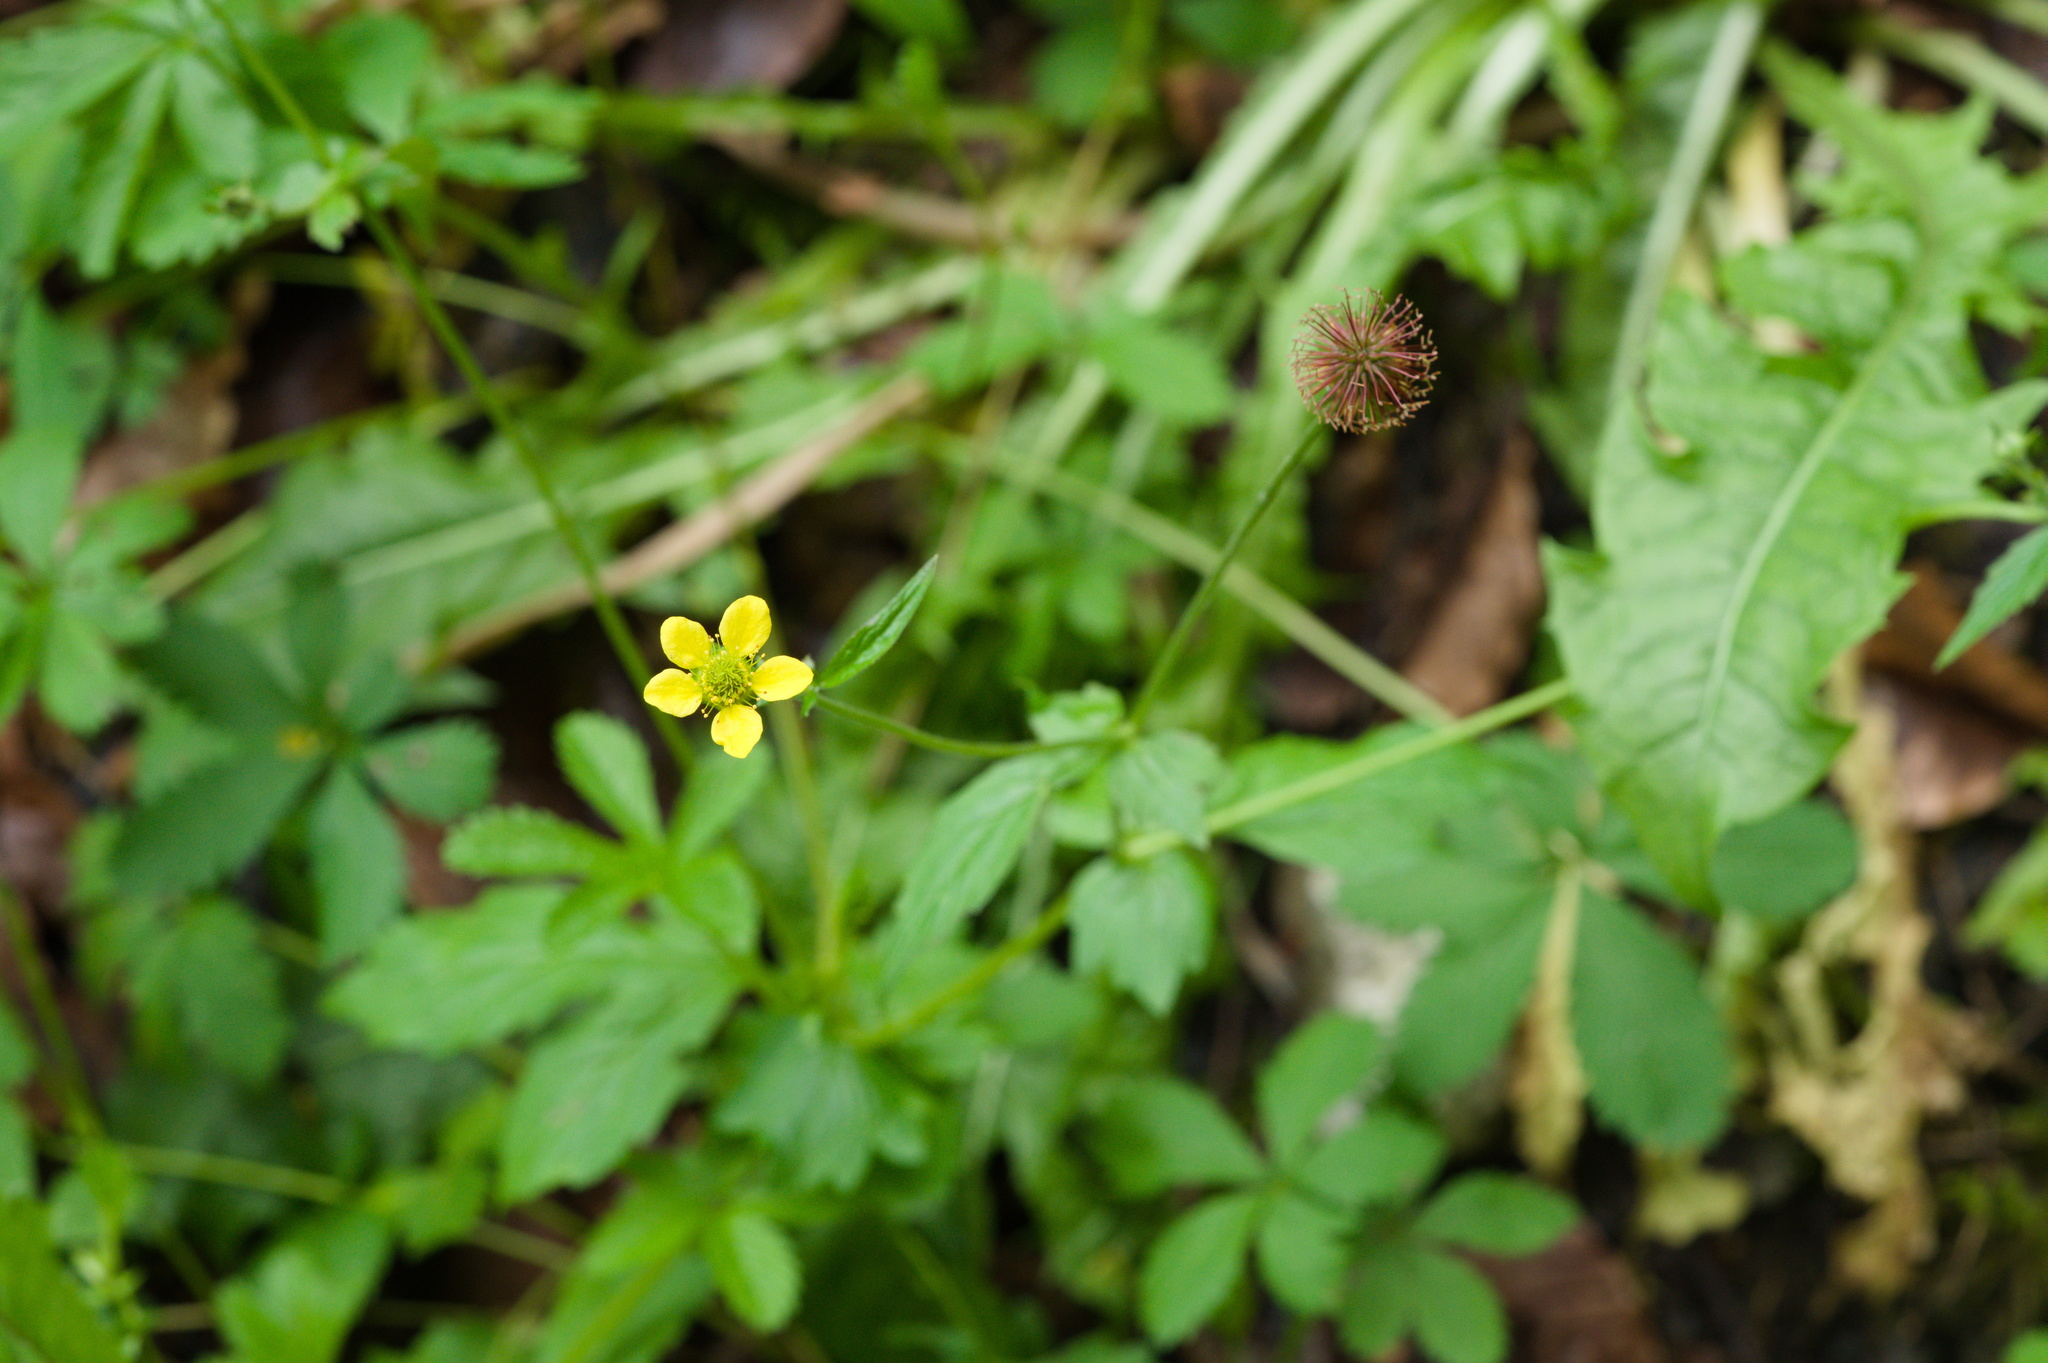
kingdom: Plantae
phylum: Tracheophyta
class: Magnoliopsida
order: Rosales
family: Rosaceae
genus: Geum
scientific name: Geum urbanum
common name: Wood avens
